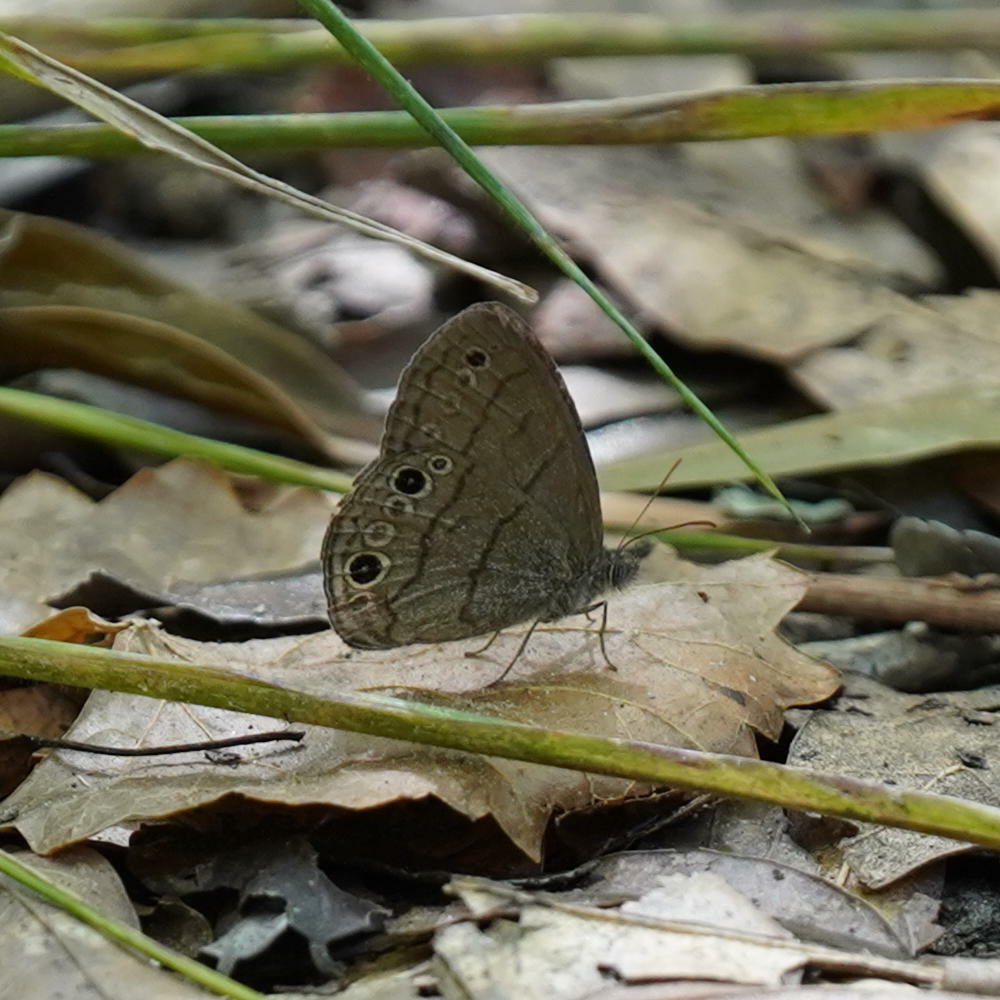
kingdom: Animalia
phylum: Arthropoda
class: Insecta
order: Lepidoptera
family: Nymphalidae
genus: Hermeuptychia
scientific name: Hermeuptychia hermes
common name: Hermes satyr
